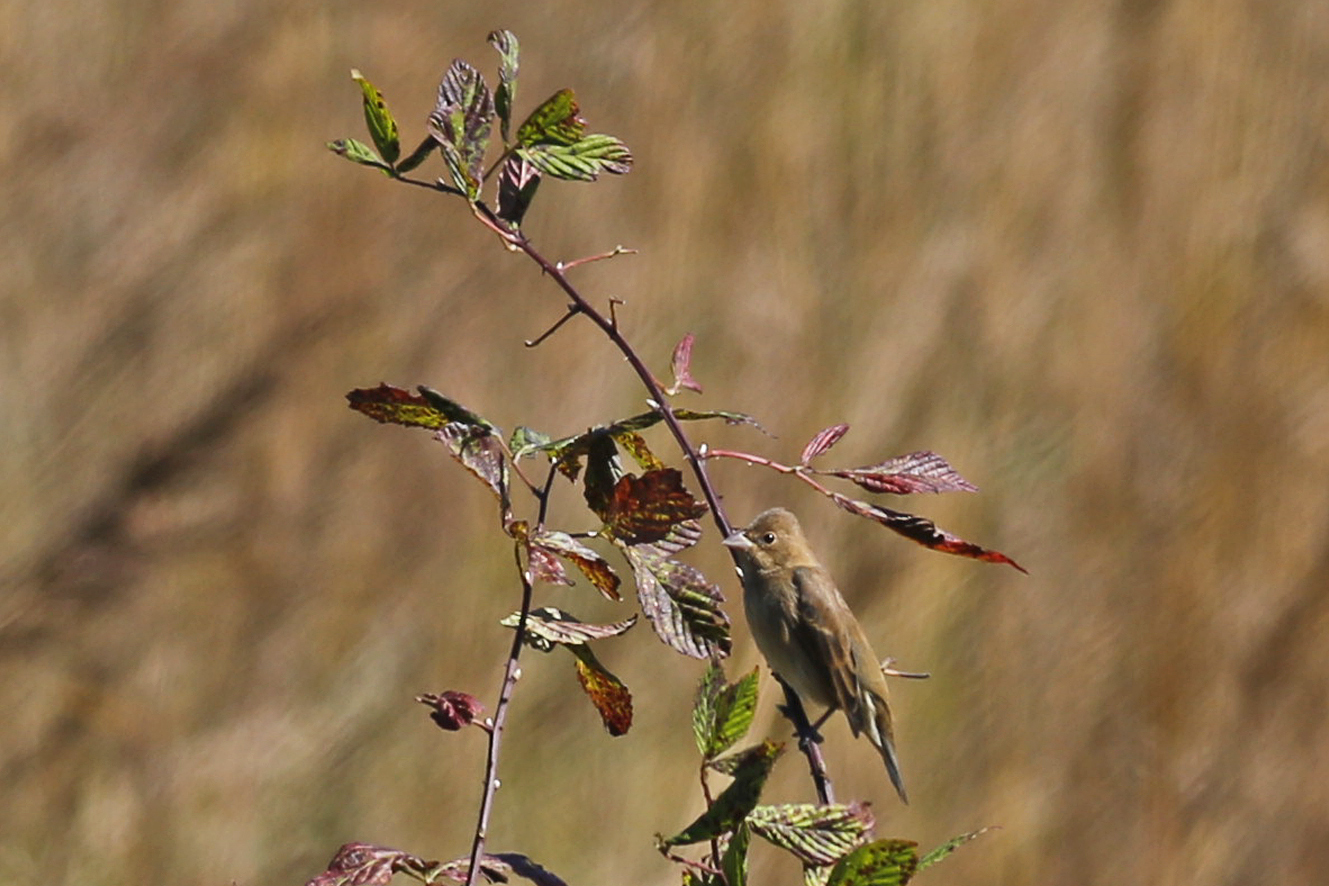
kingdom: Animalia
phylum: Chordata
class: Aves
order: Passeriformes
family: Cardinalidae
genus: Passerina
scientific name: Passerina caerulea
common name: Blue grosbeak
